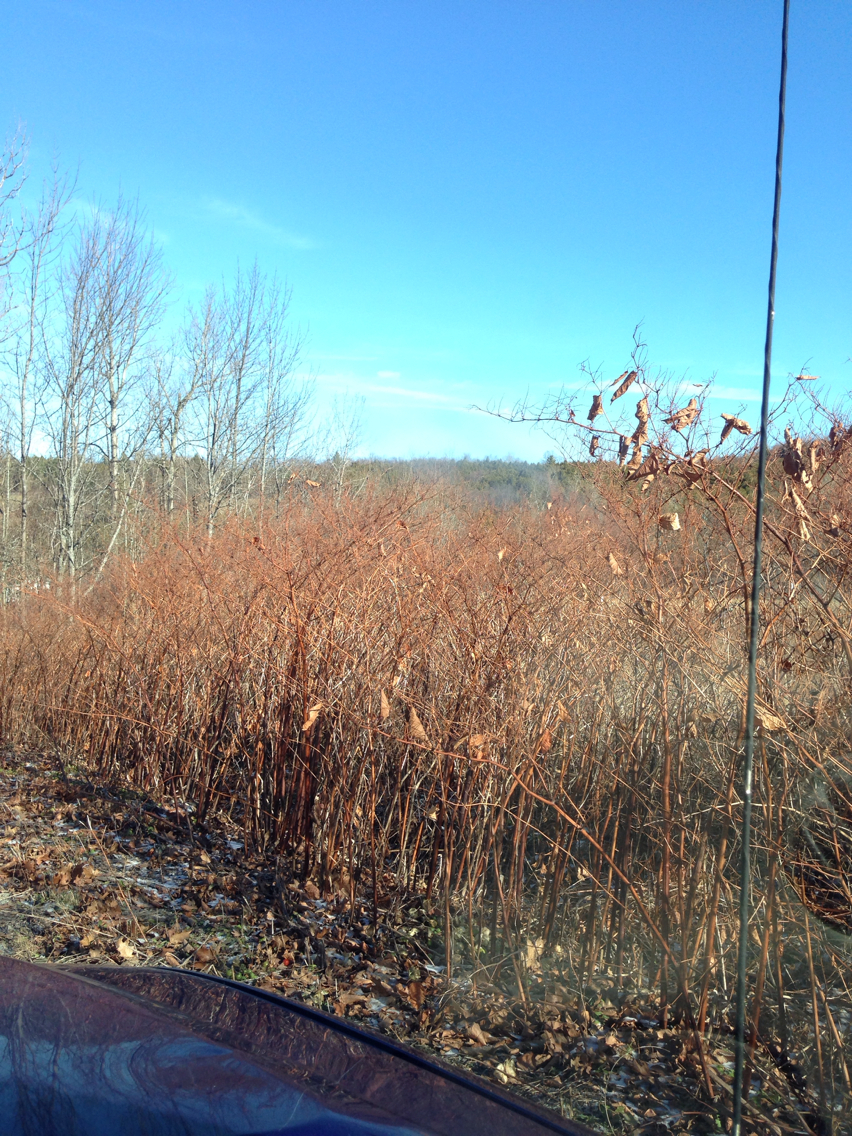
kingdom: Plantae
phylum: Tracheophyta
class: Magnoliopsida
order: Caryophyllales
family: Polygonaceae
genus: Reynoutria
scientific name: Reynoutria japonica
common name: Japanese knotweed
